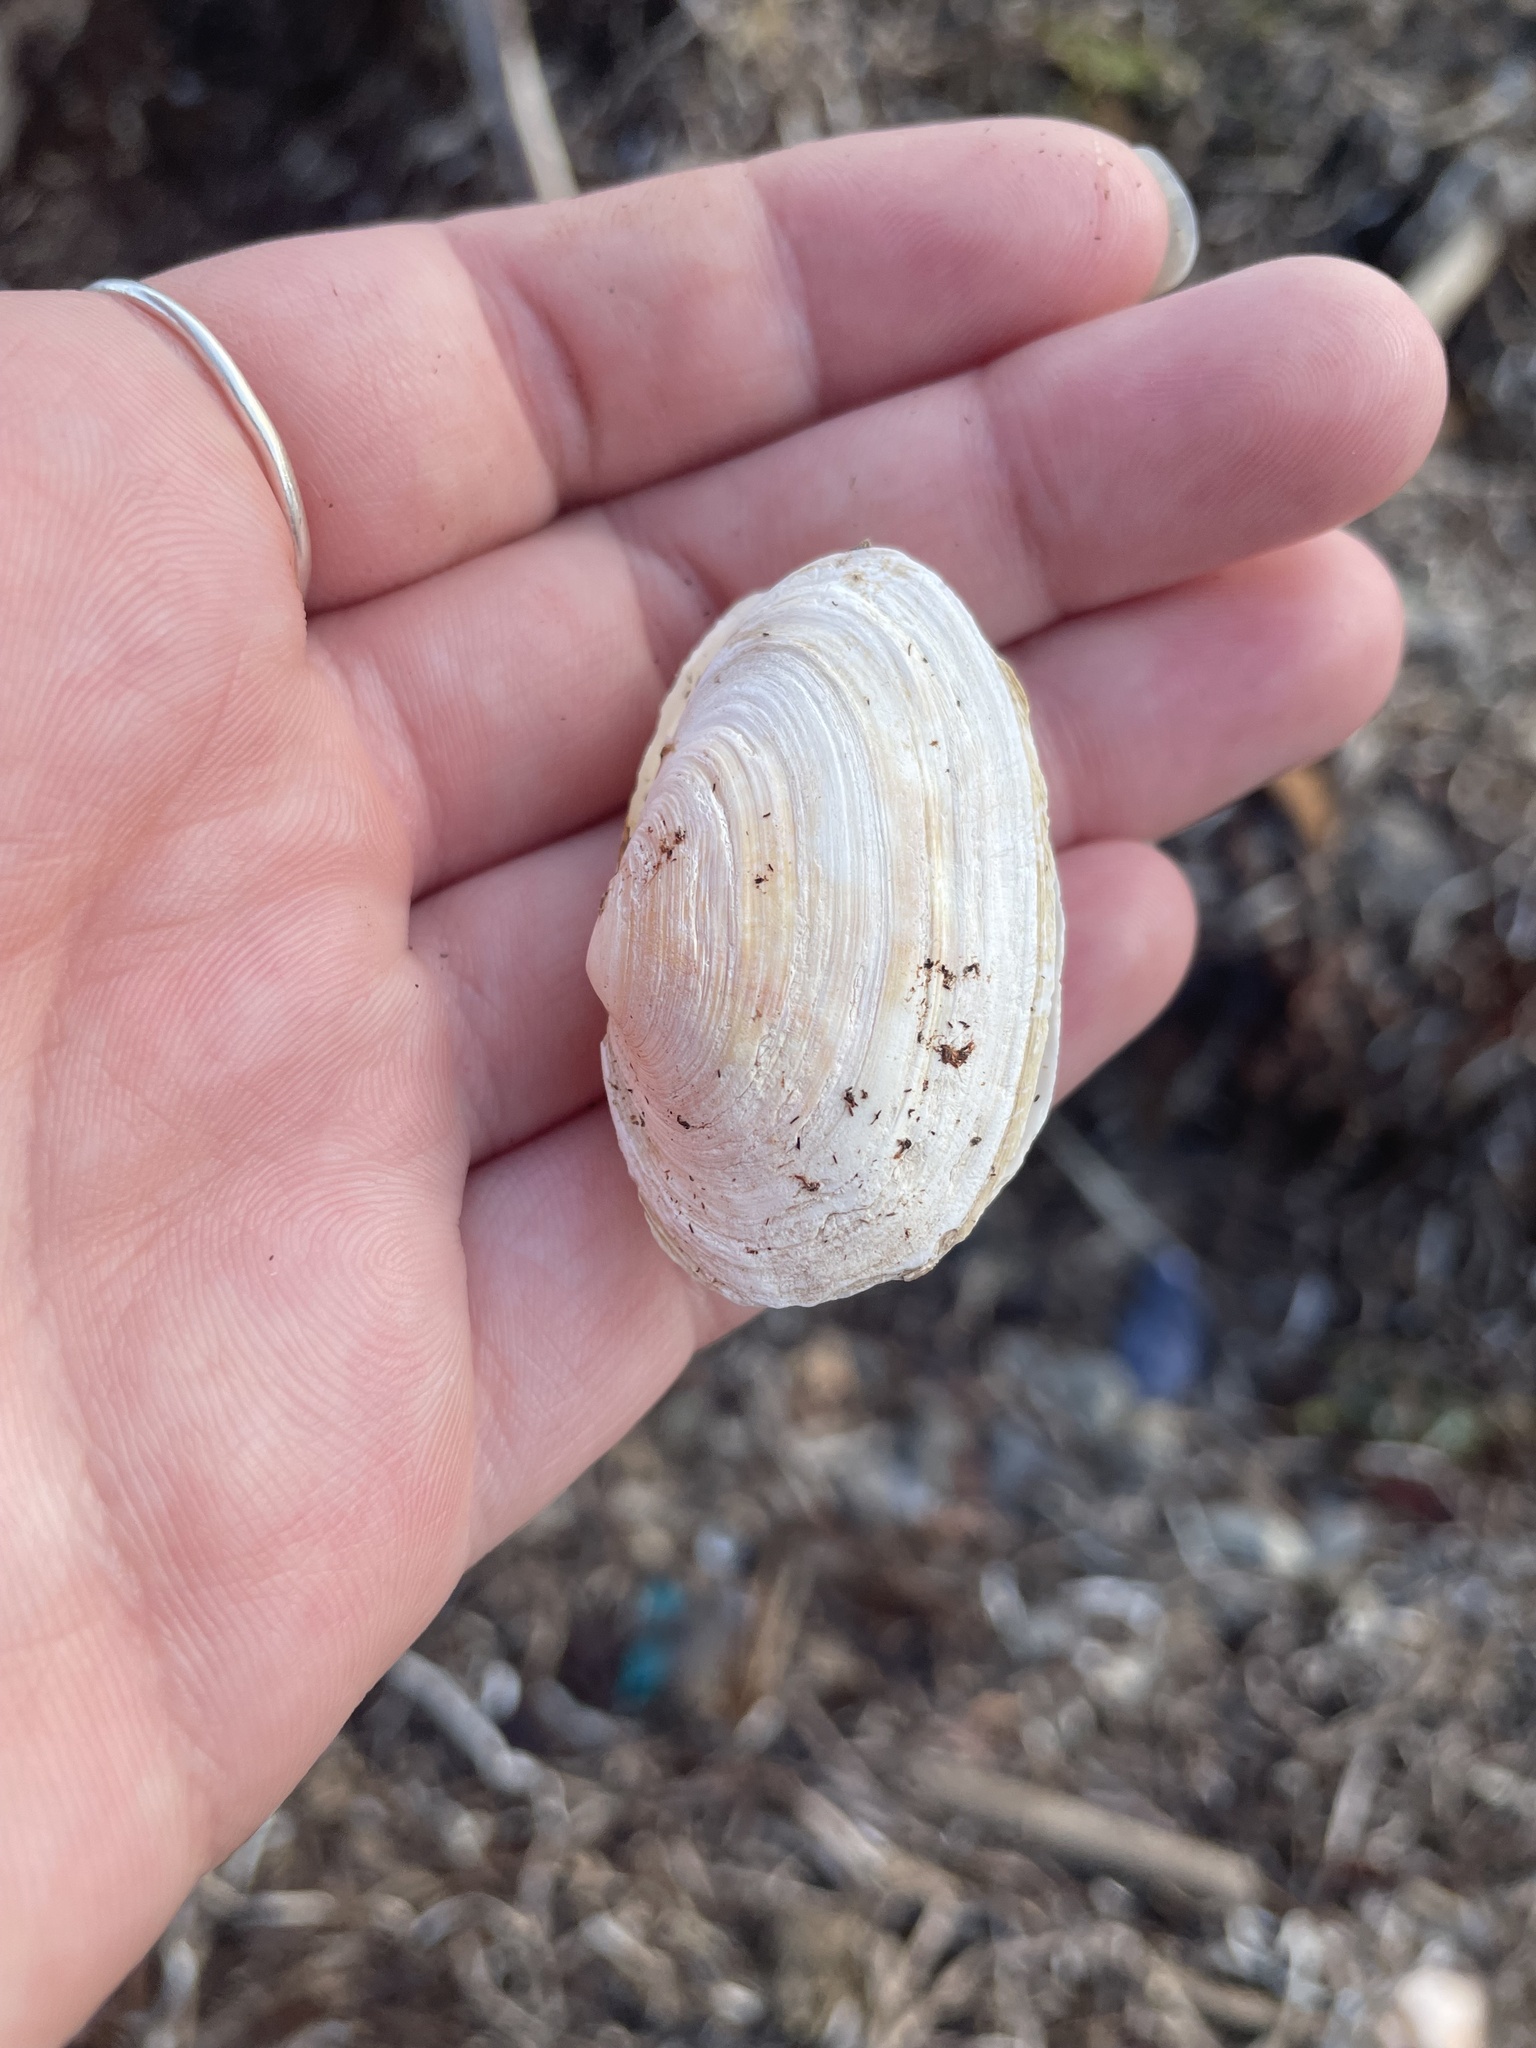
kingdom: Animalia
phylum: Mollusca
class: Bivalvia
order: Myida
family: Myidae
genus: Mya
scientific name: Mya arenaria
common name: Soft-shelled clam
